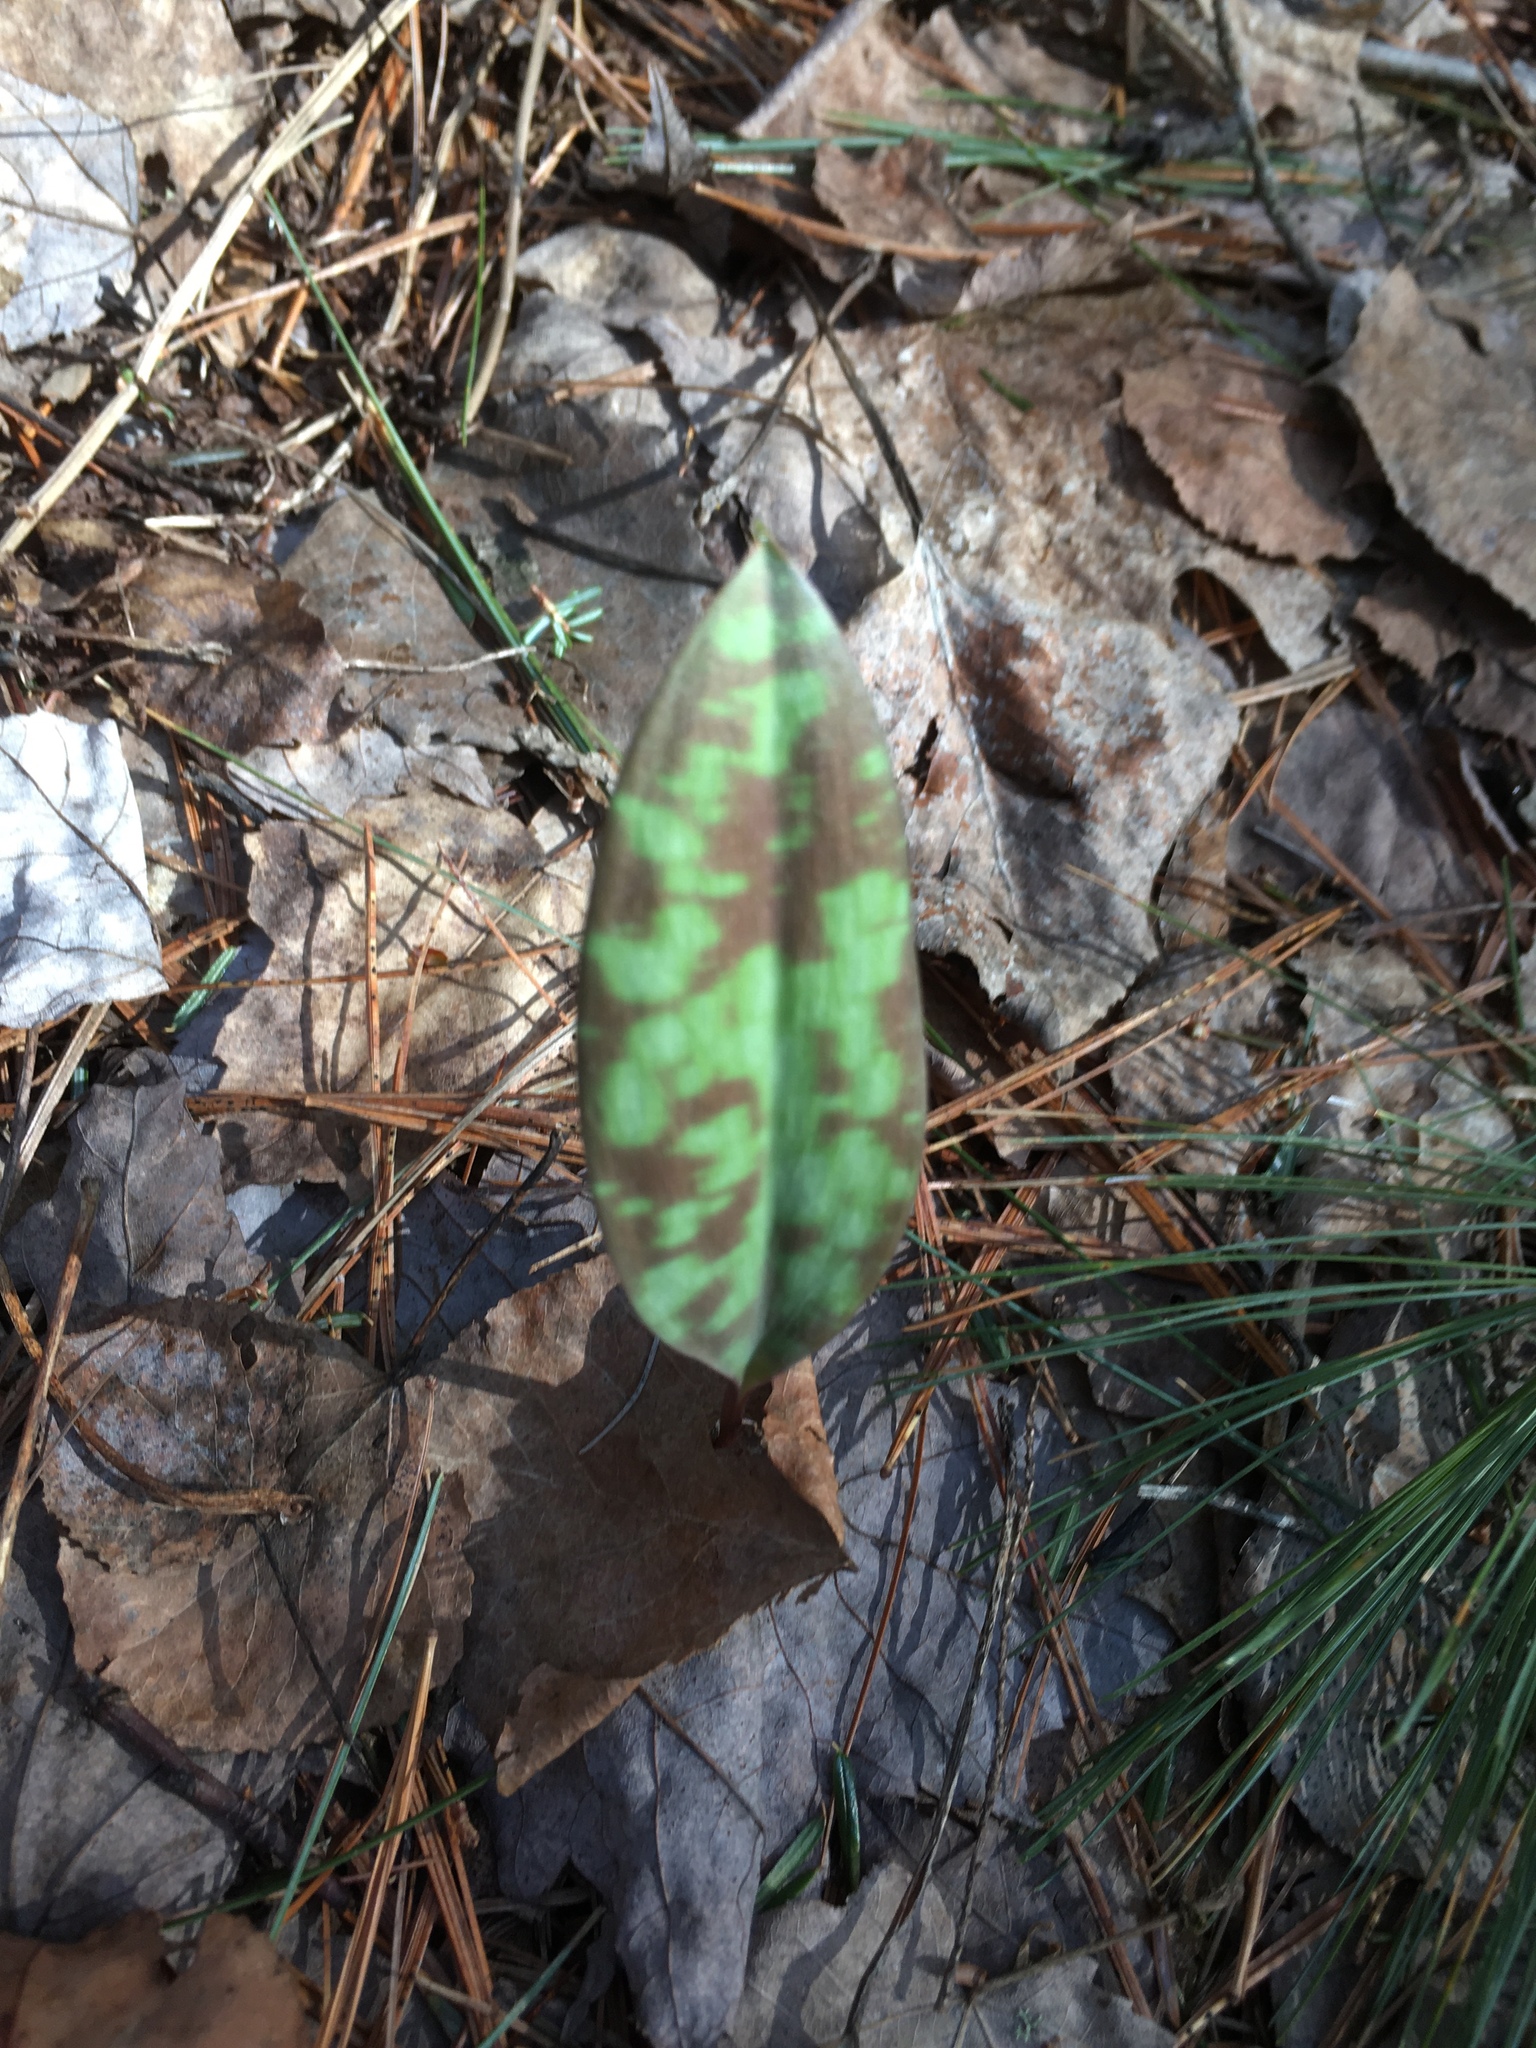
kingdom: Plantae
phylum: Tracheophyta
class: Liliopsida
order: Liliales
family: Liliaceae
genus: Erythronium
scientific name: Erythronium americanum
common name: Yellow adder's-tongue
